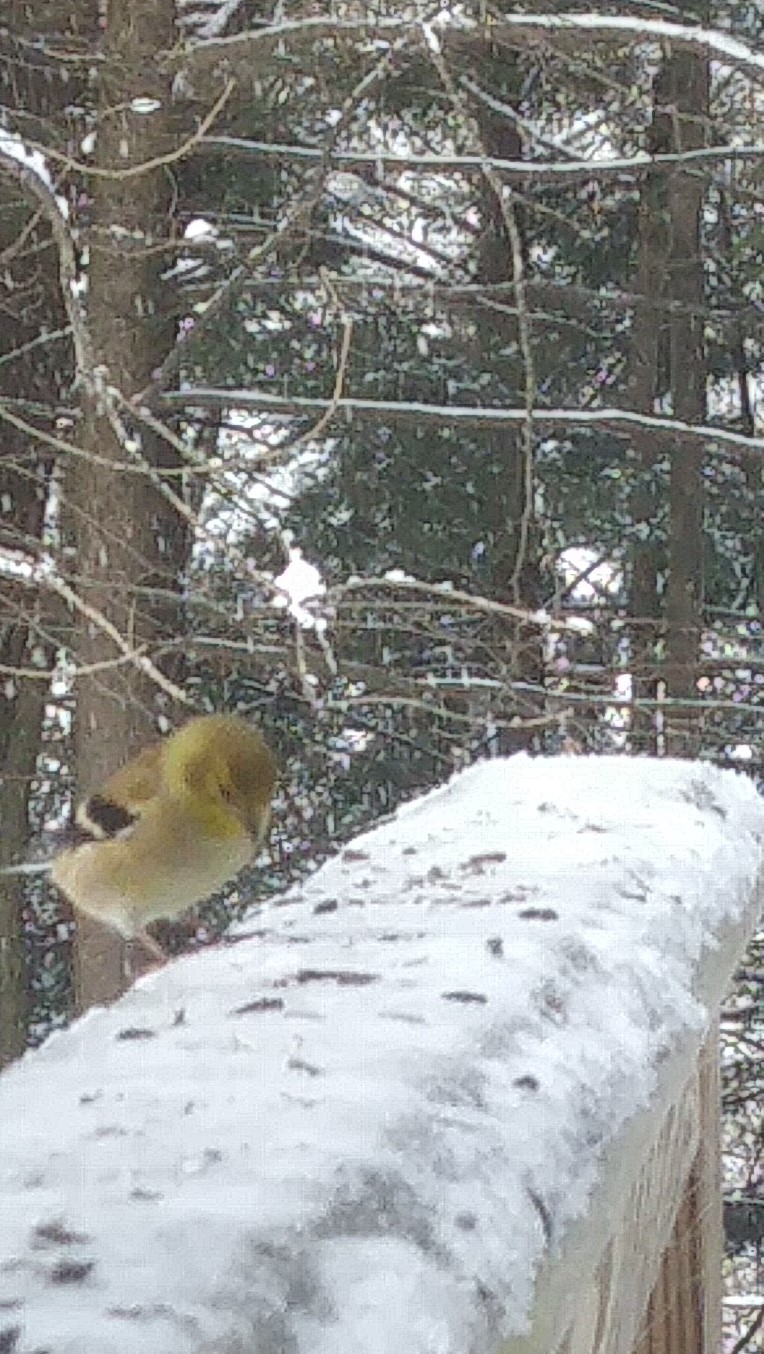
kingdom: Animalia
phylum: Chordata
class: Aves
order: Passeriformes
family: Fringillidae
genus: Spinus
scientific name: Spinus tristis
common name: American goldfinch
